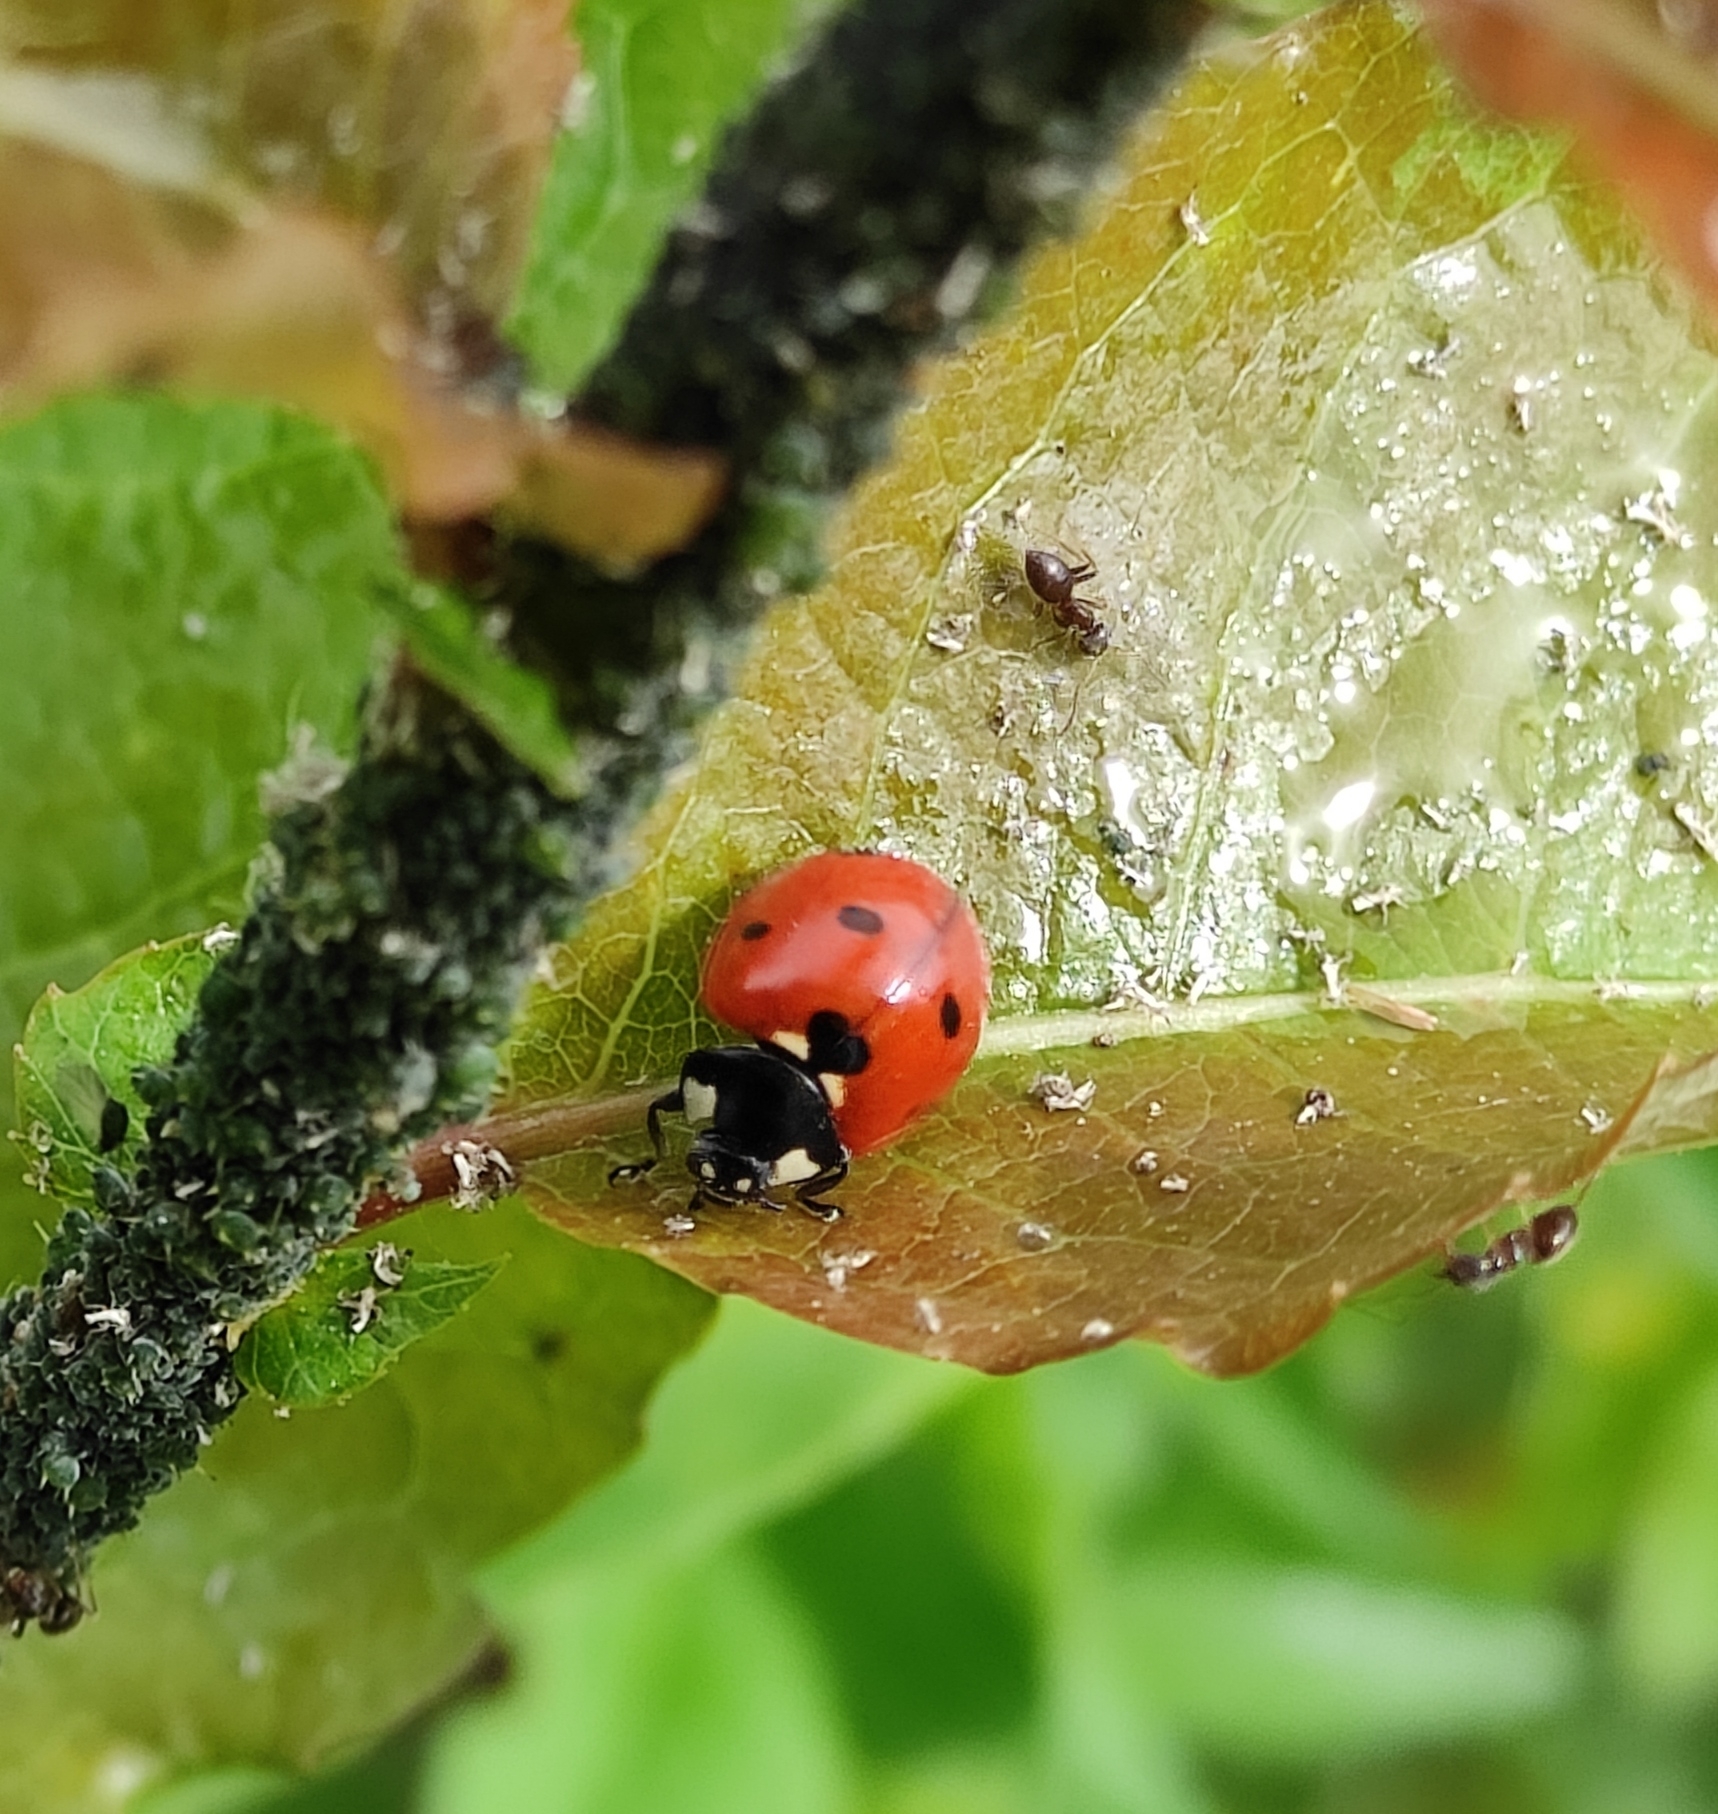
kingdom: Animalia
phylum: Arthropoda
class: Insecta
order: Coleoptera
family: Coccinellidae
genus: Coccinella
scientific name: Coccinella septempunctata
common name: Sevenspotted lady beetle
